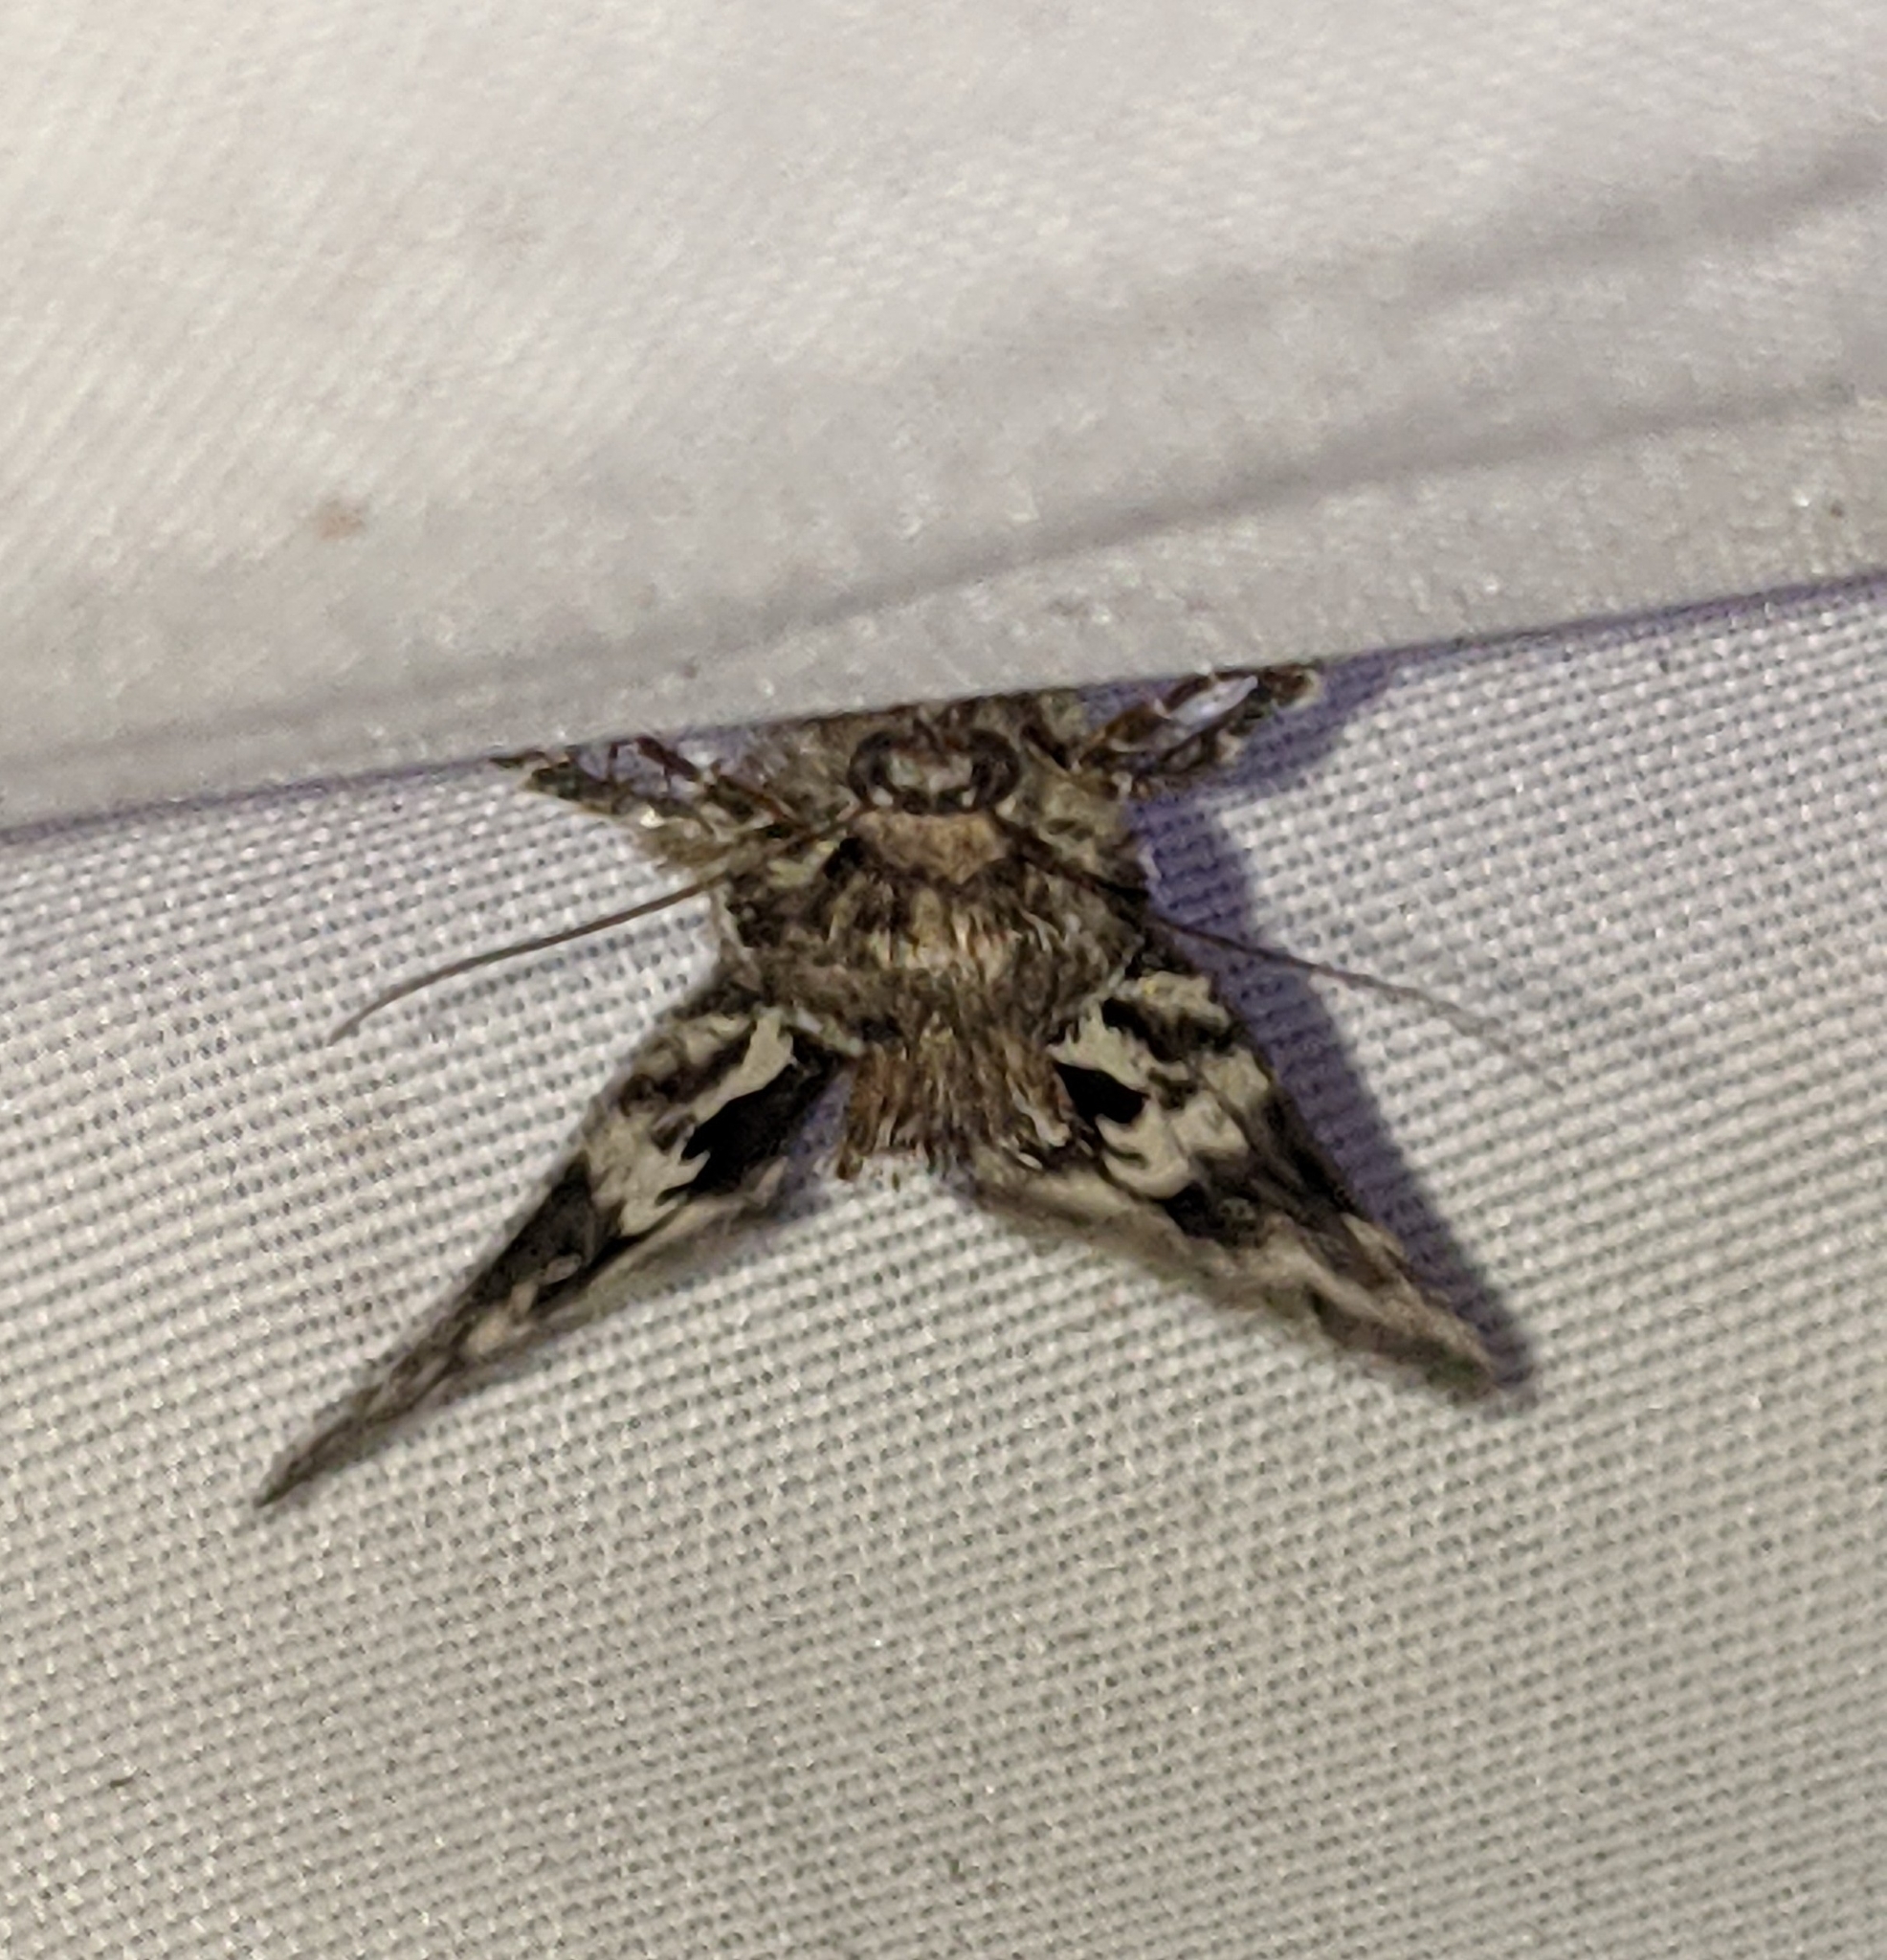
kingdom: Animalia
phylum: Arthropoda
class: Insecta
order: Lepidoptera
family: Noctuidae
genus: Syngrapha
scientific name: Syngrapha rectangula
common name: Angulated cutworm
